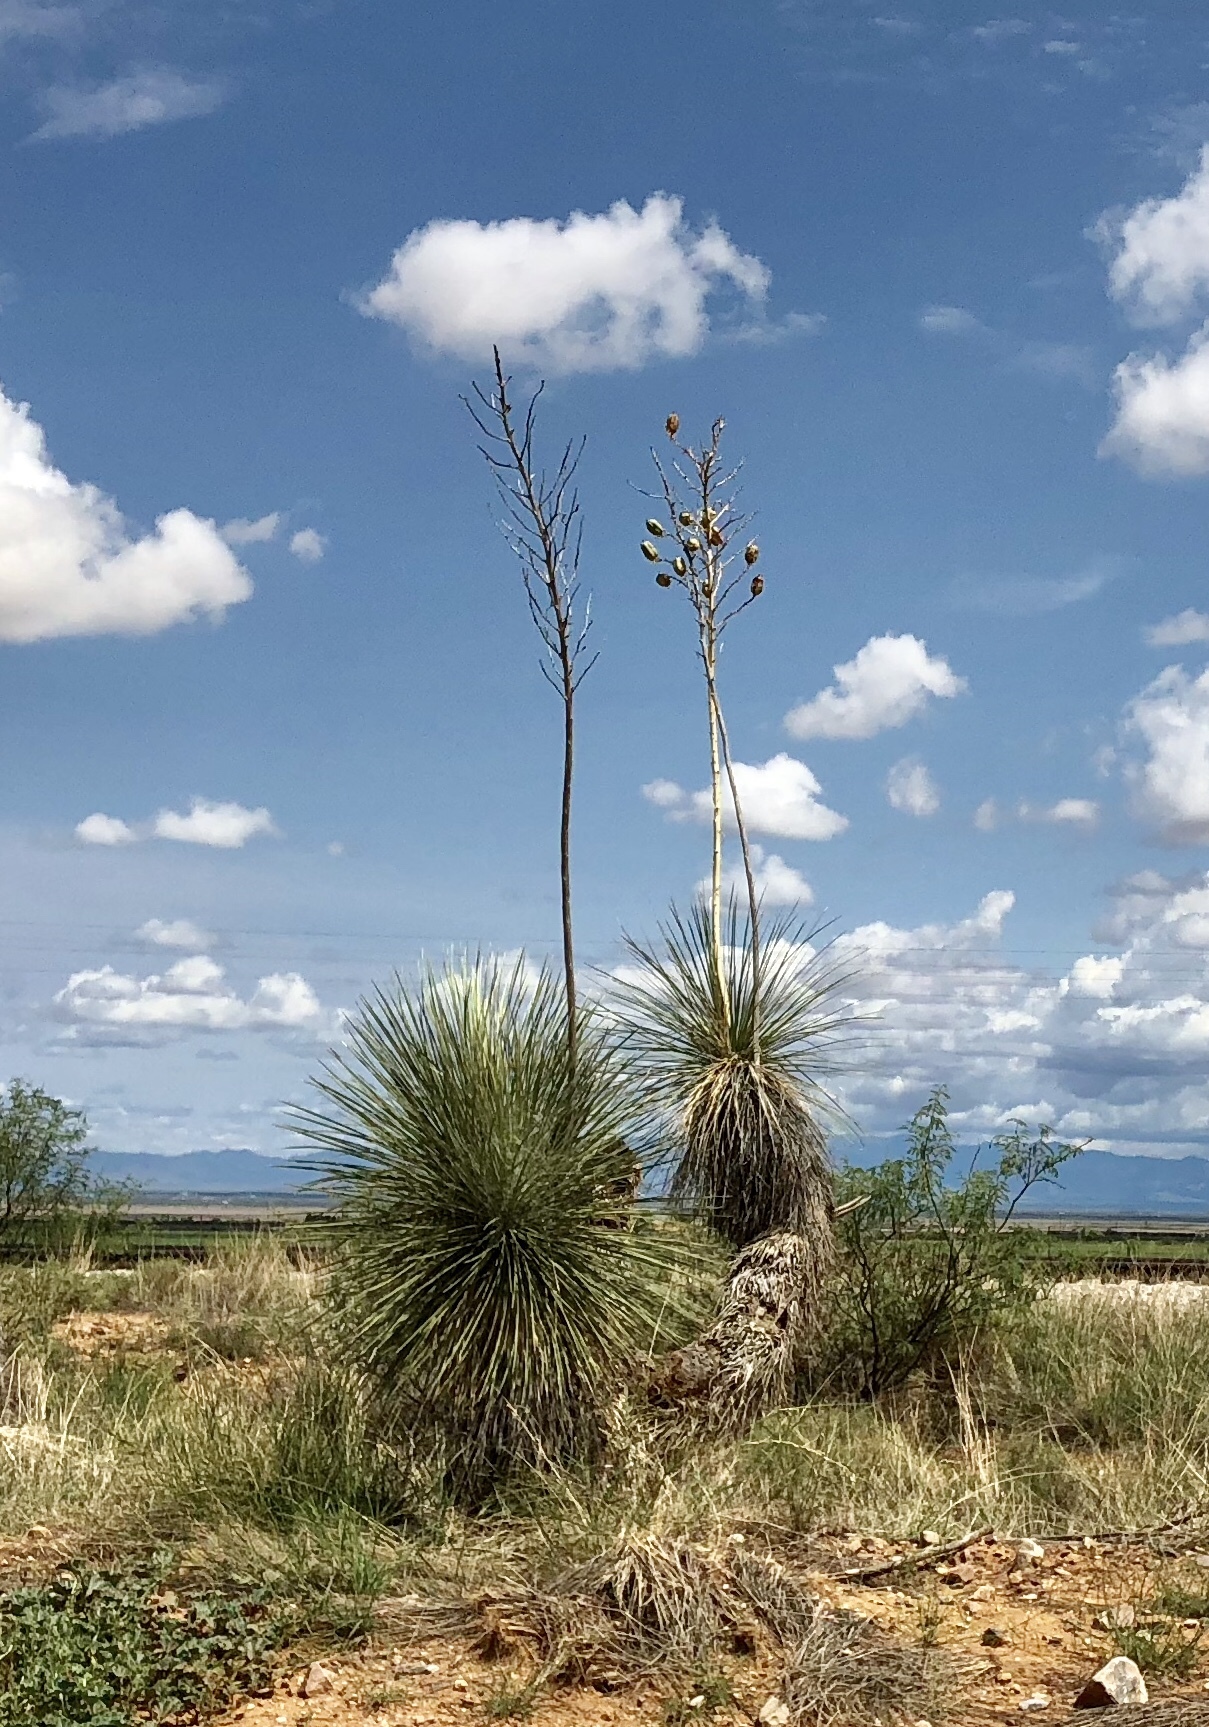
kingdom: Plantae
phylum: Tracheophyta
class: Liliopsida
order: Asparagales
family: Asparagaceae
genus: Yucca
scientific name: Yucca elata
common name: Palmella
